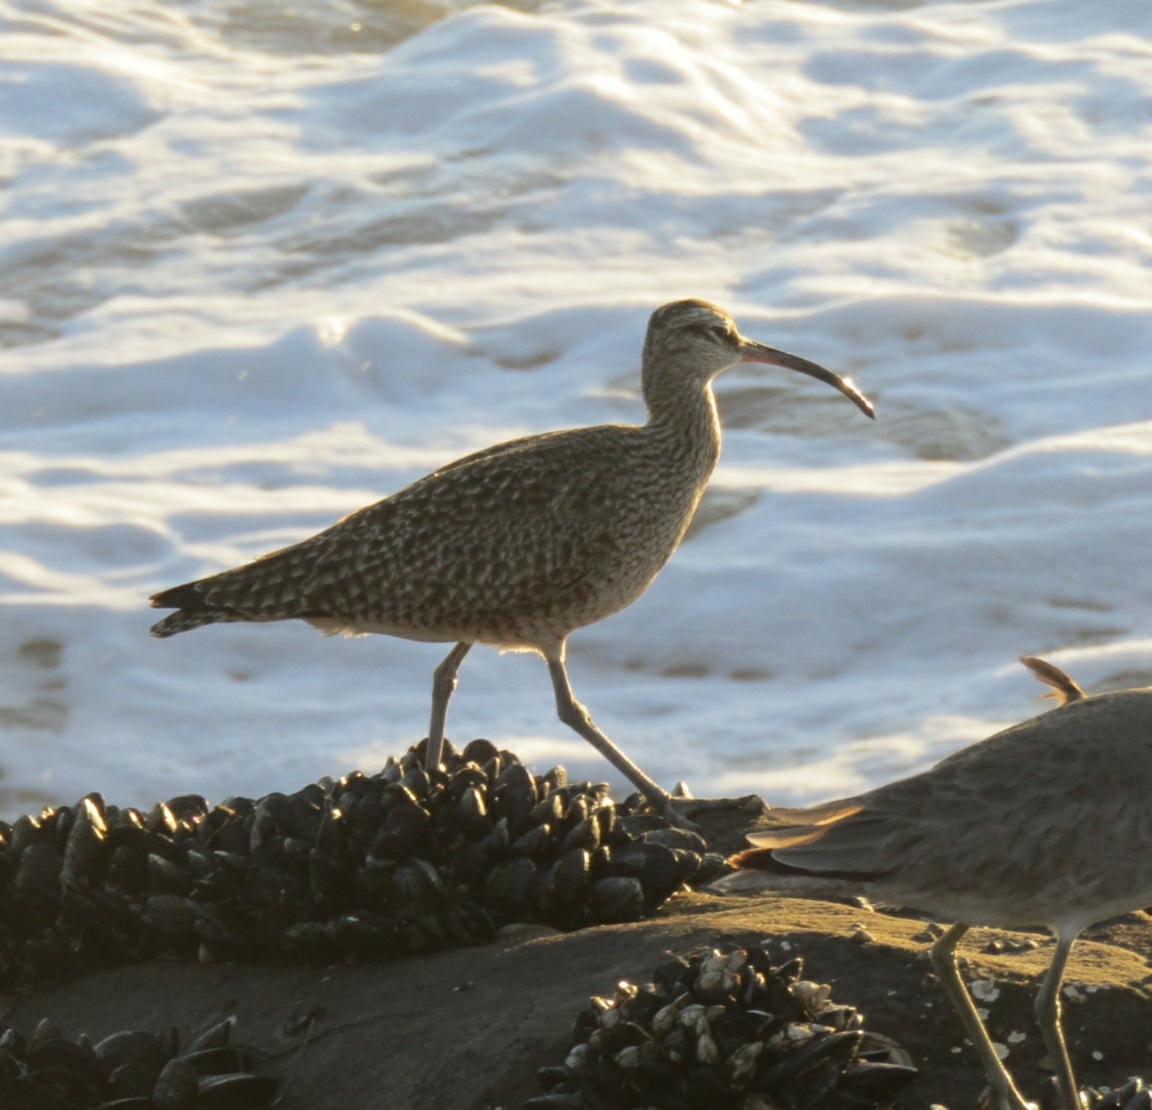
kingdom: Animalia
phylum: Chordata
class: Aves
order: Charadriiformes
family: Scolopacidae
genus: Numenius
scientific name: Numenius phaeopus
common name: Whimbrel
